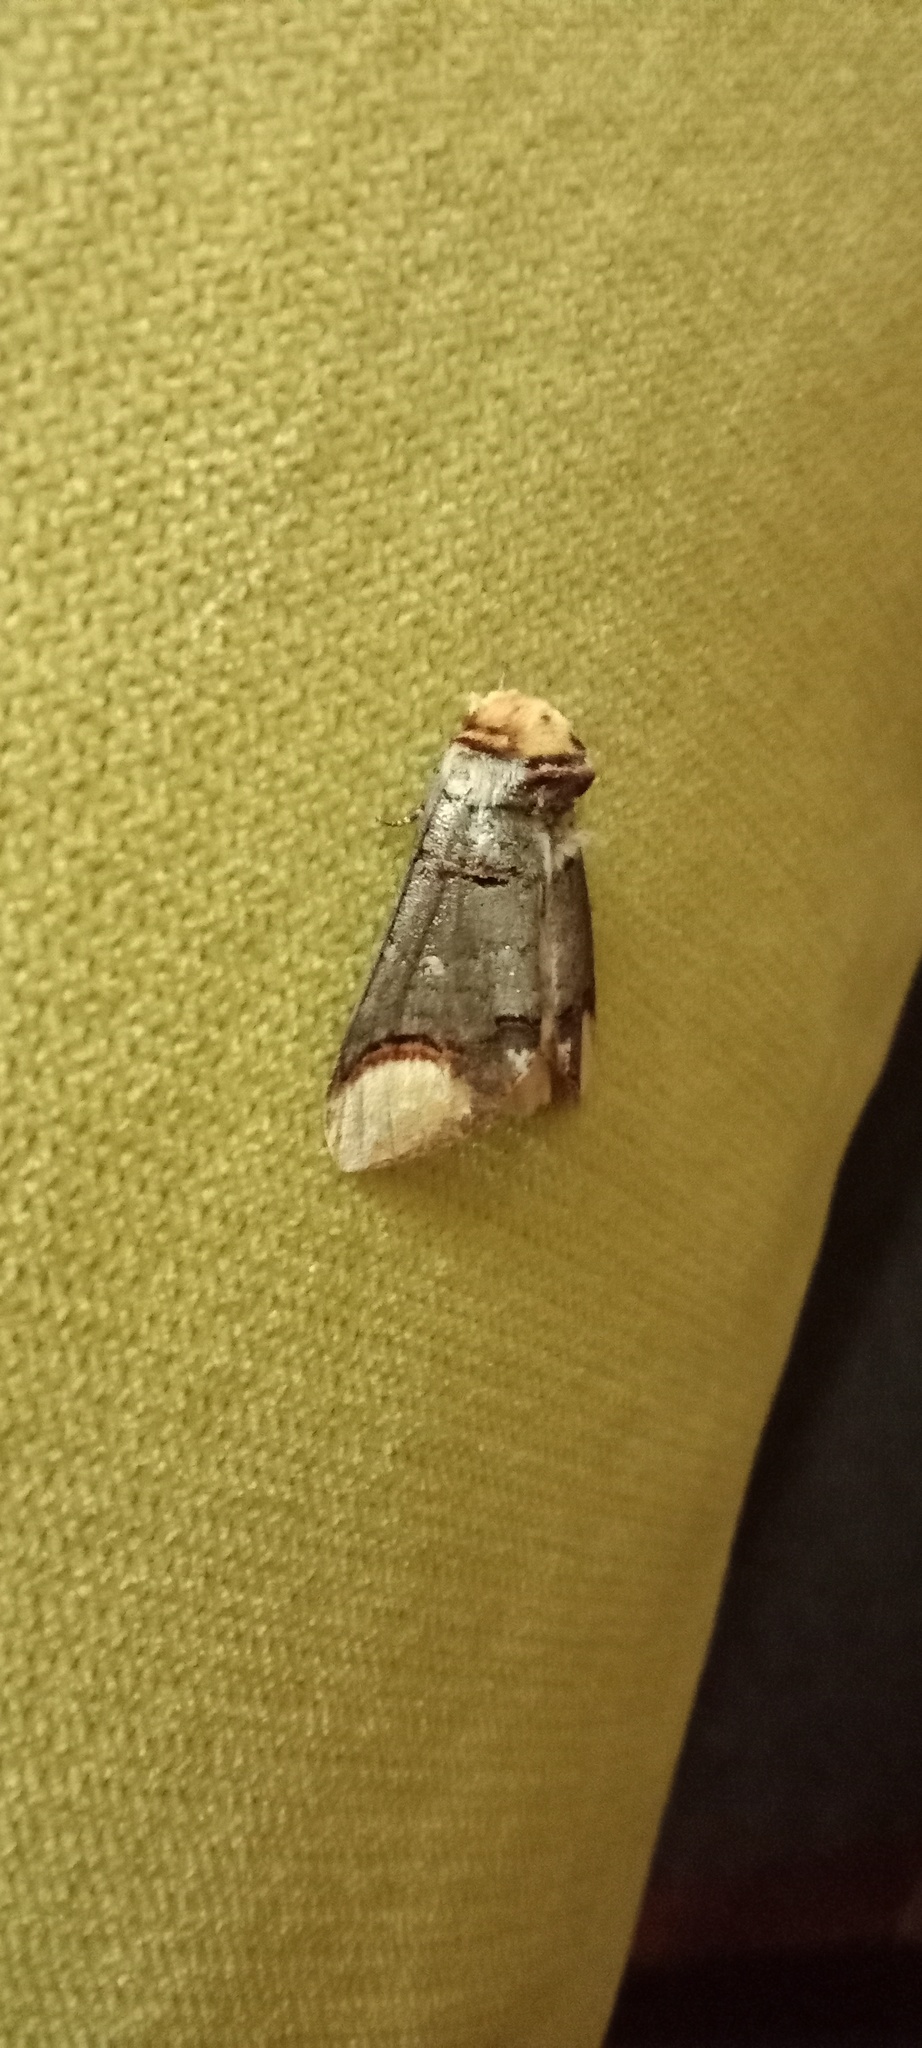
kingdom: Animalia
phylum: Arthropoda
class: Insecta
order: Lepidoptera
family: Notodontidae
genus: Phalera
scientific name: Phalera bucephala
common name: Buff-tip
